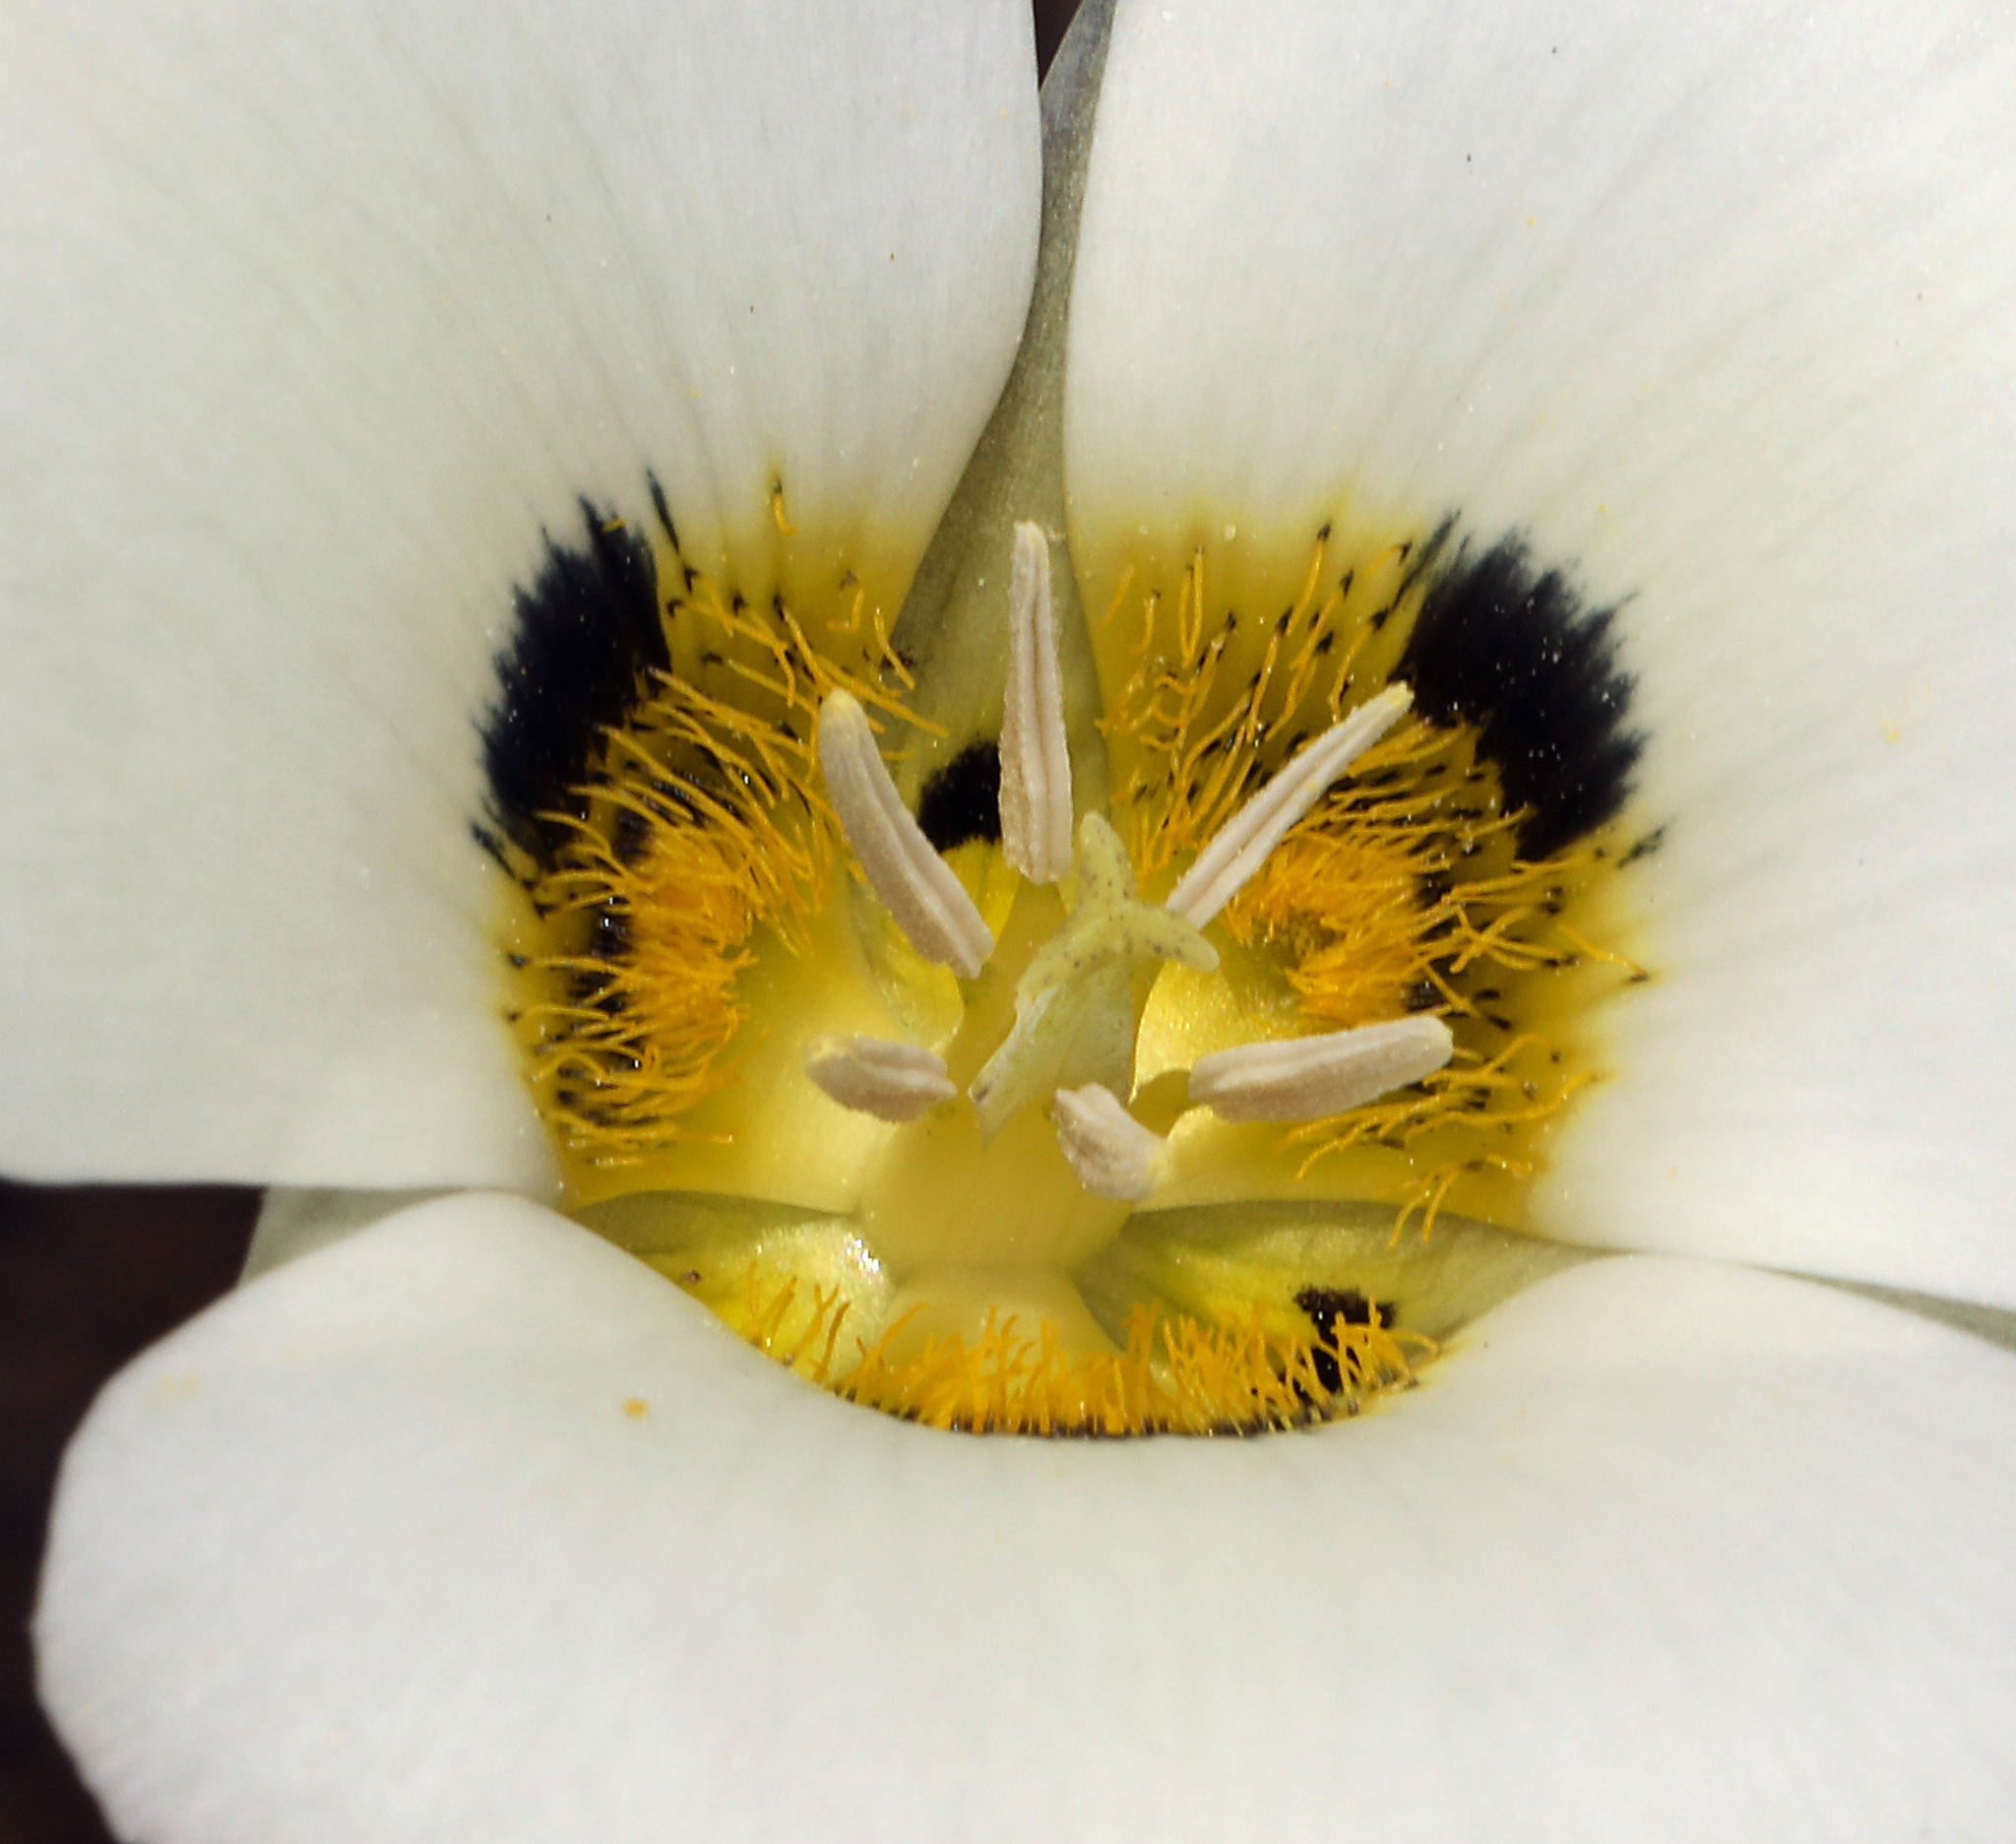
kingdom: Plantae
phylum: Tracheophyta
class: Liliopsida
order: Liliales
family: Liliaceae
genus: Calochortus
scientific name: Calochortus leichtlinii
